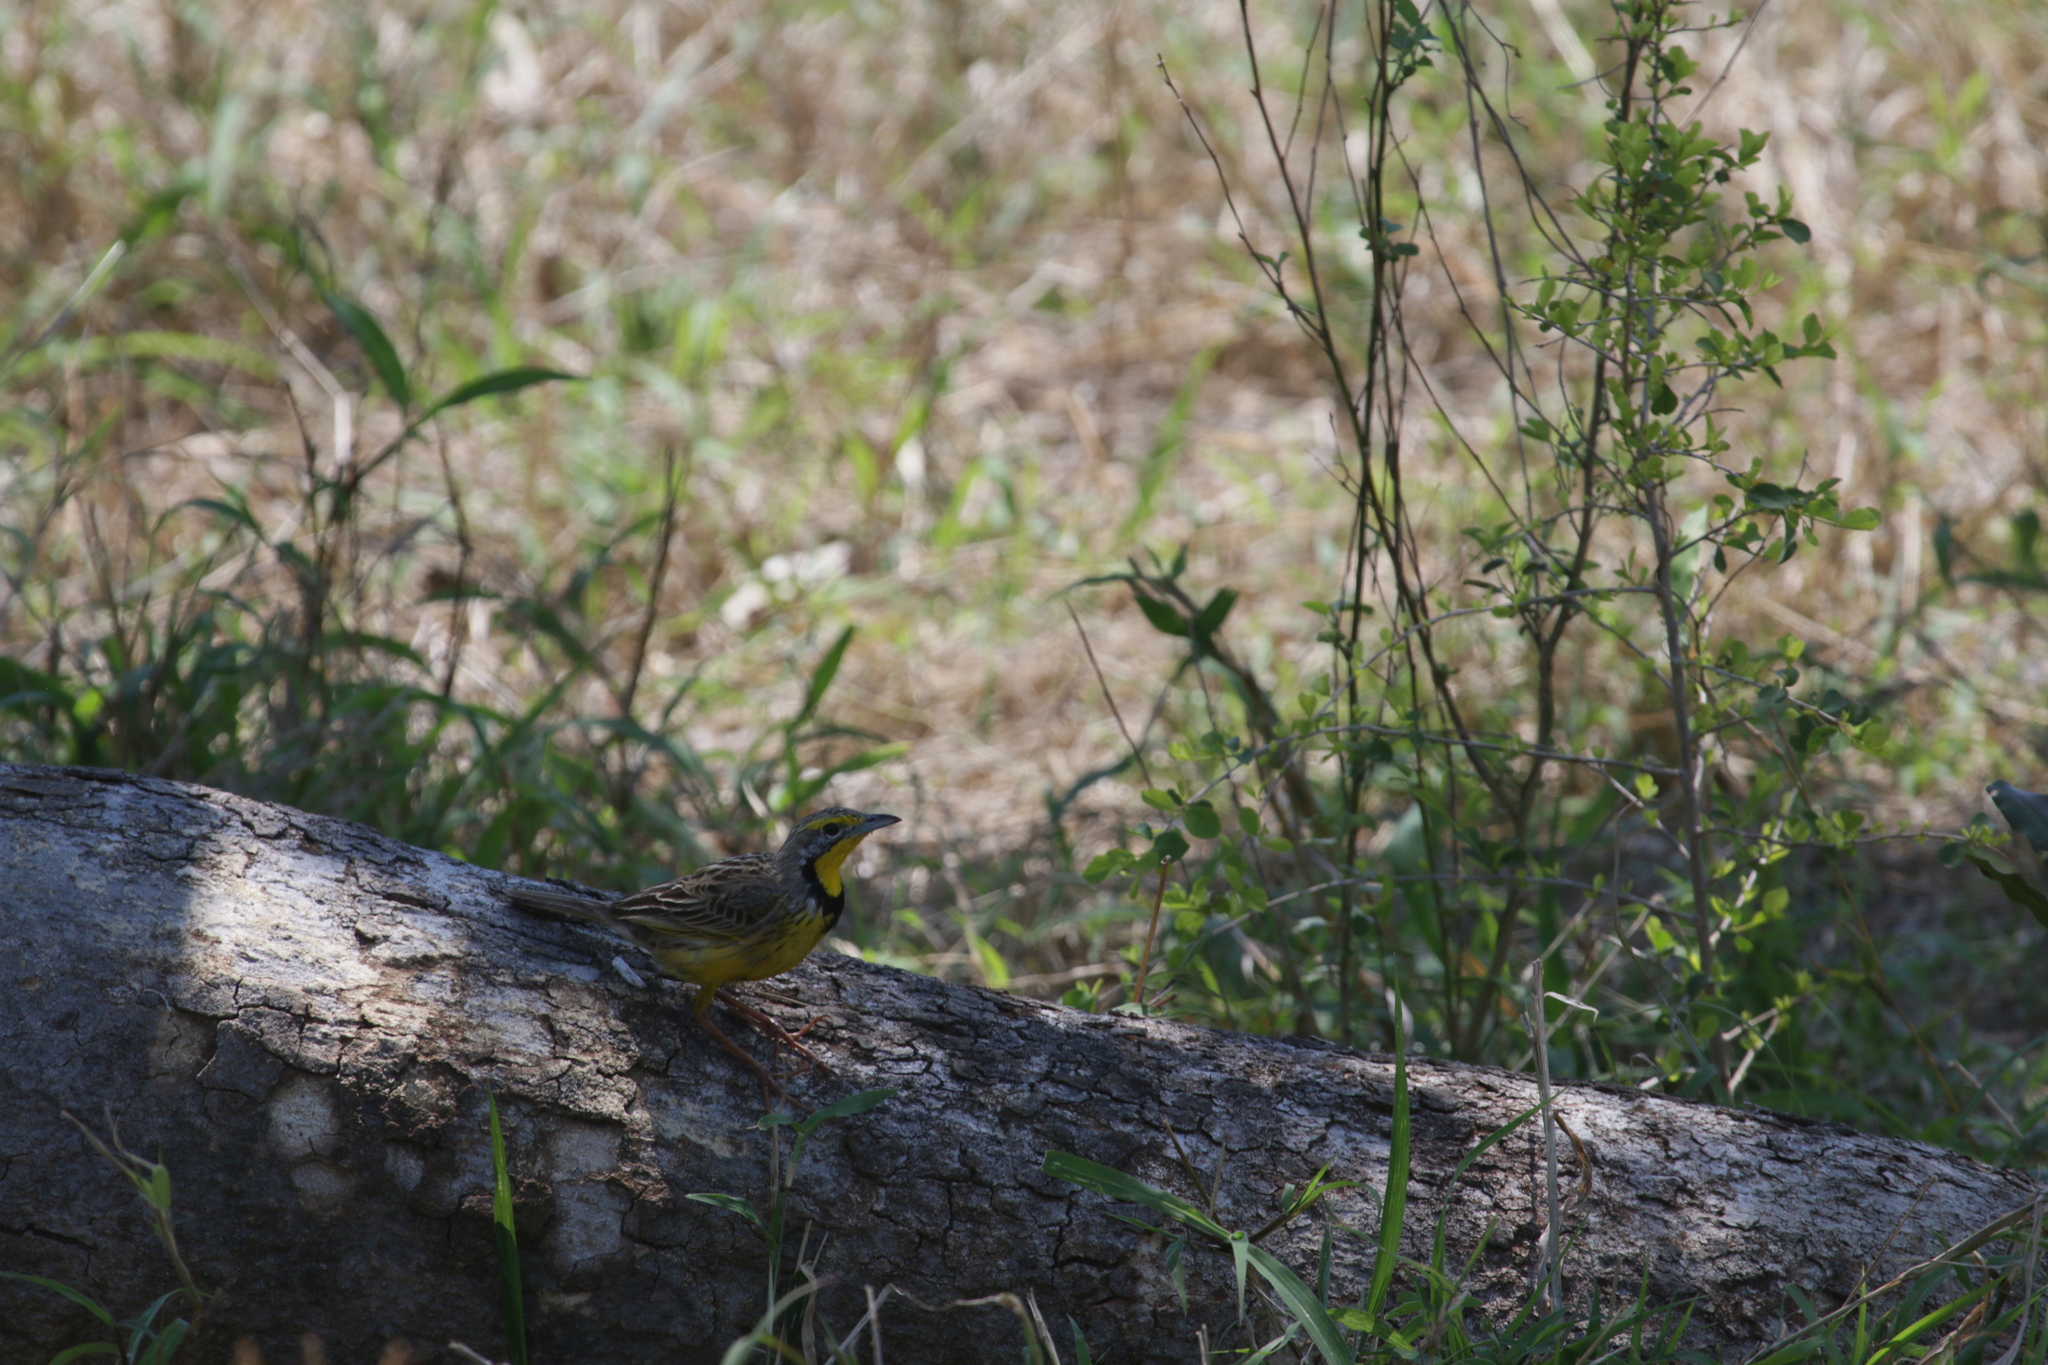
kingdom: Animalia
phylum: Chordata
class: Aves
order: Passeriformes
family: Motacillidae
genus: Macronyx
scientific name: Macronyx croceus
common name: Yellow-throated longclaw
